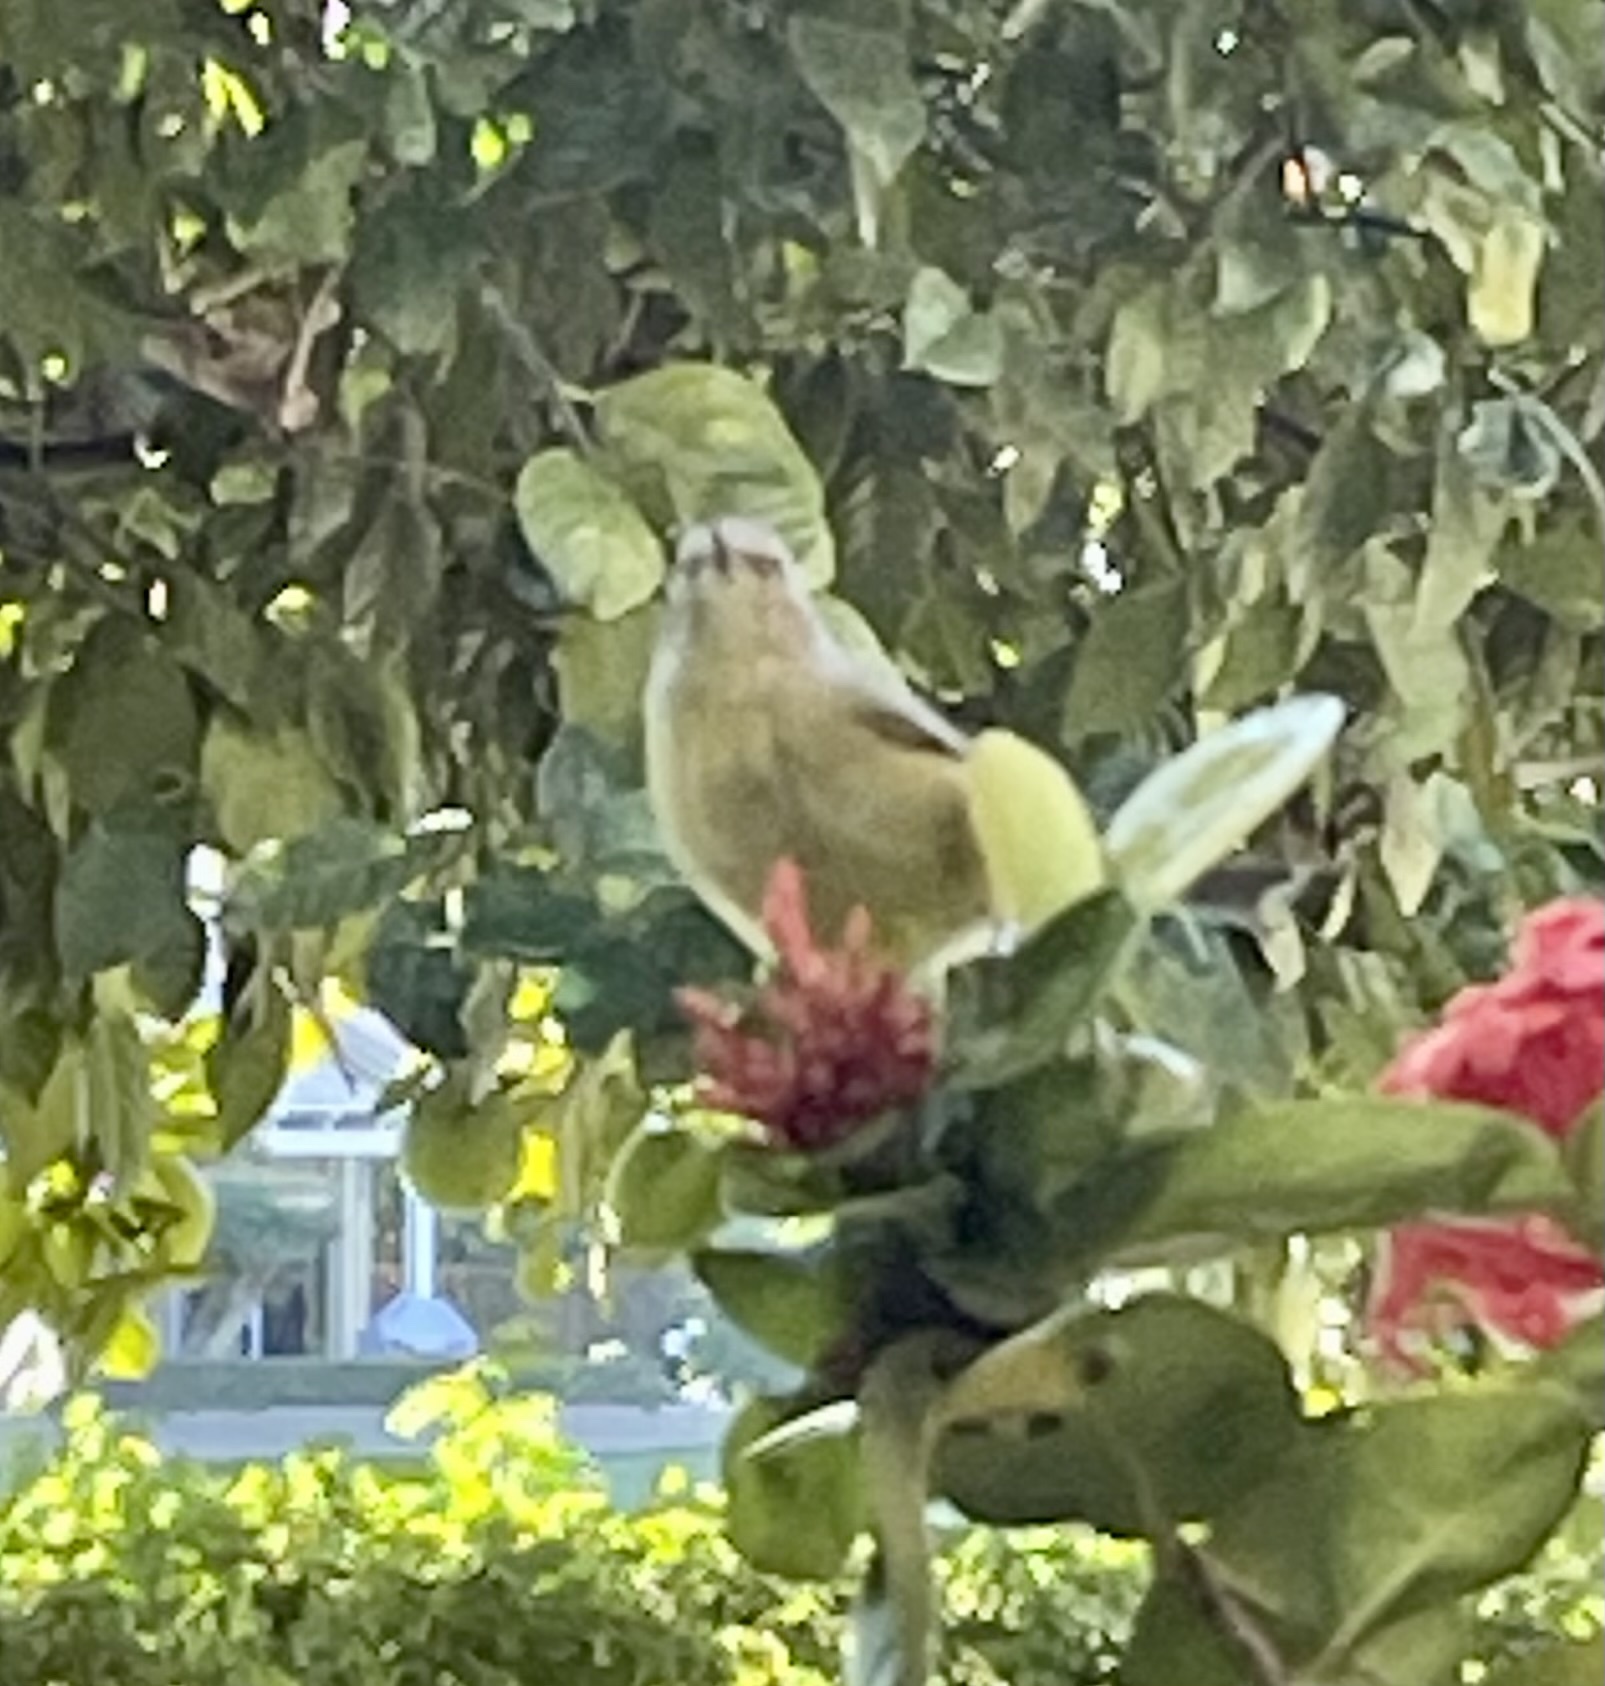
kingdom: Animalia
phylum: Chordata
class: Aves
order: Passeriformes
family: Parulidae
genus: Leiothlypis
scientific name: Leiothlypis celata
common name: Orange-crowned warbler
